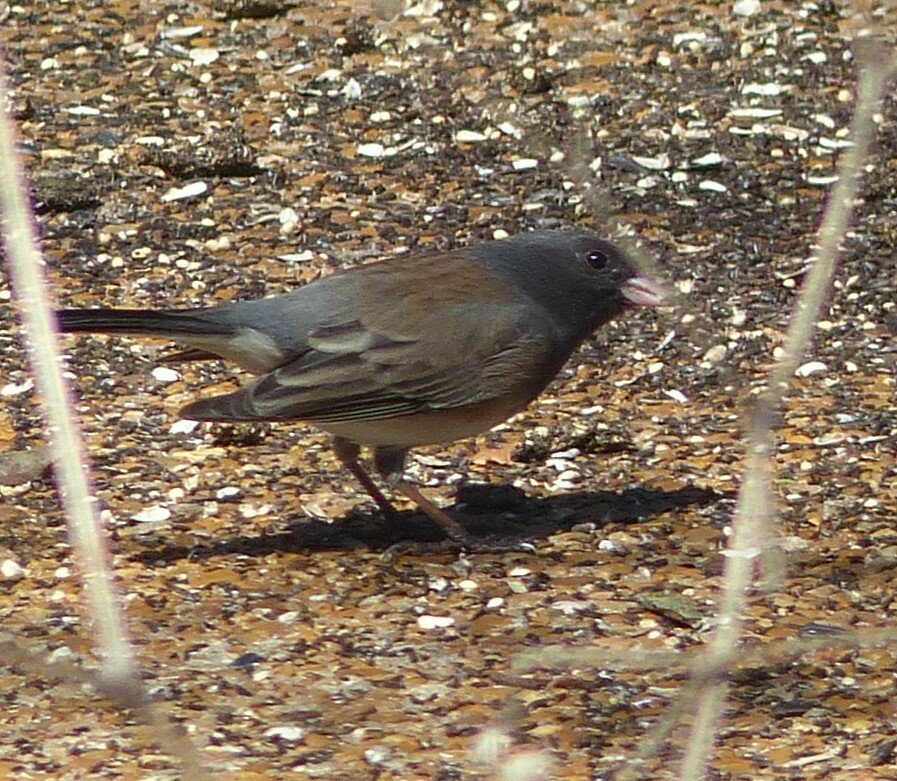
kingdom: Animalia
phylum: Chordata
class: Aves
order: Passeriformes
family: Passerellidae
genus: Junco
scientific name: Junco hyemalis
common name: Dark-eyed junco
